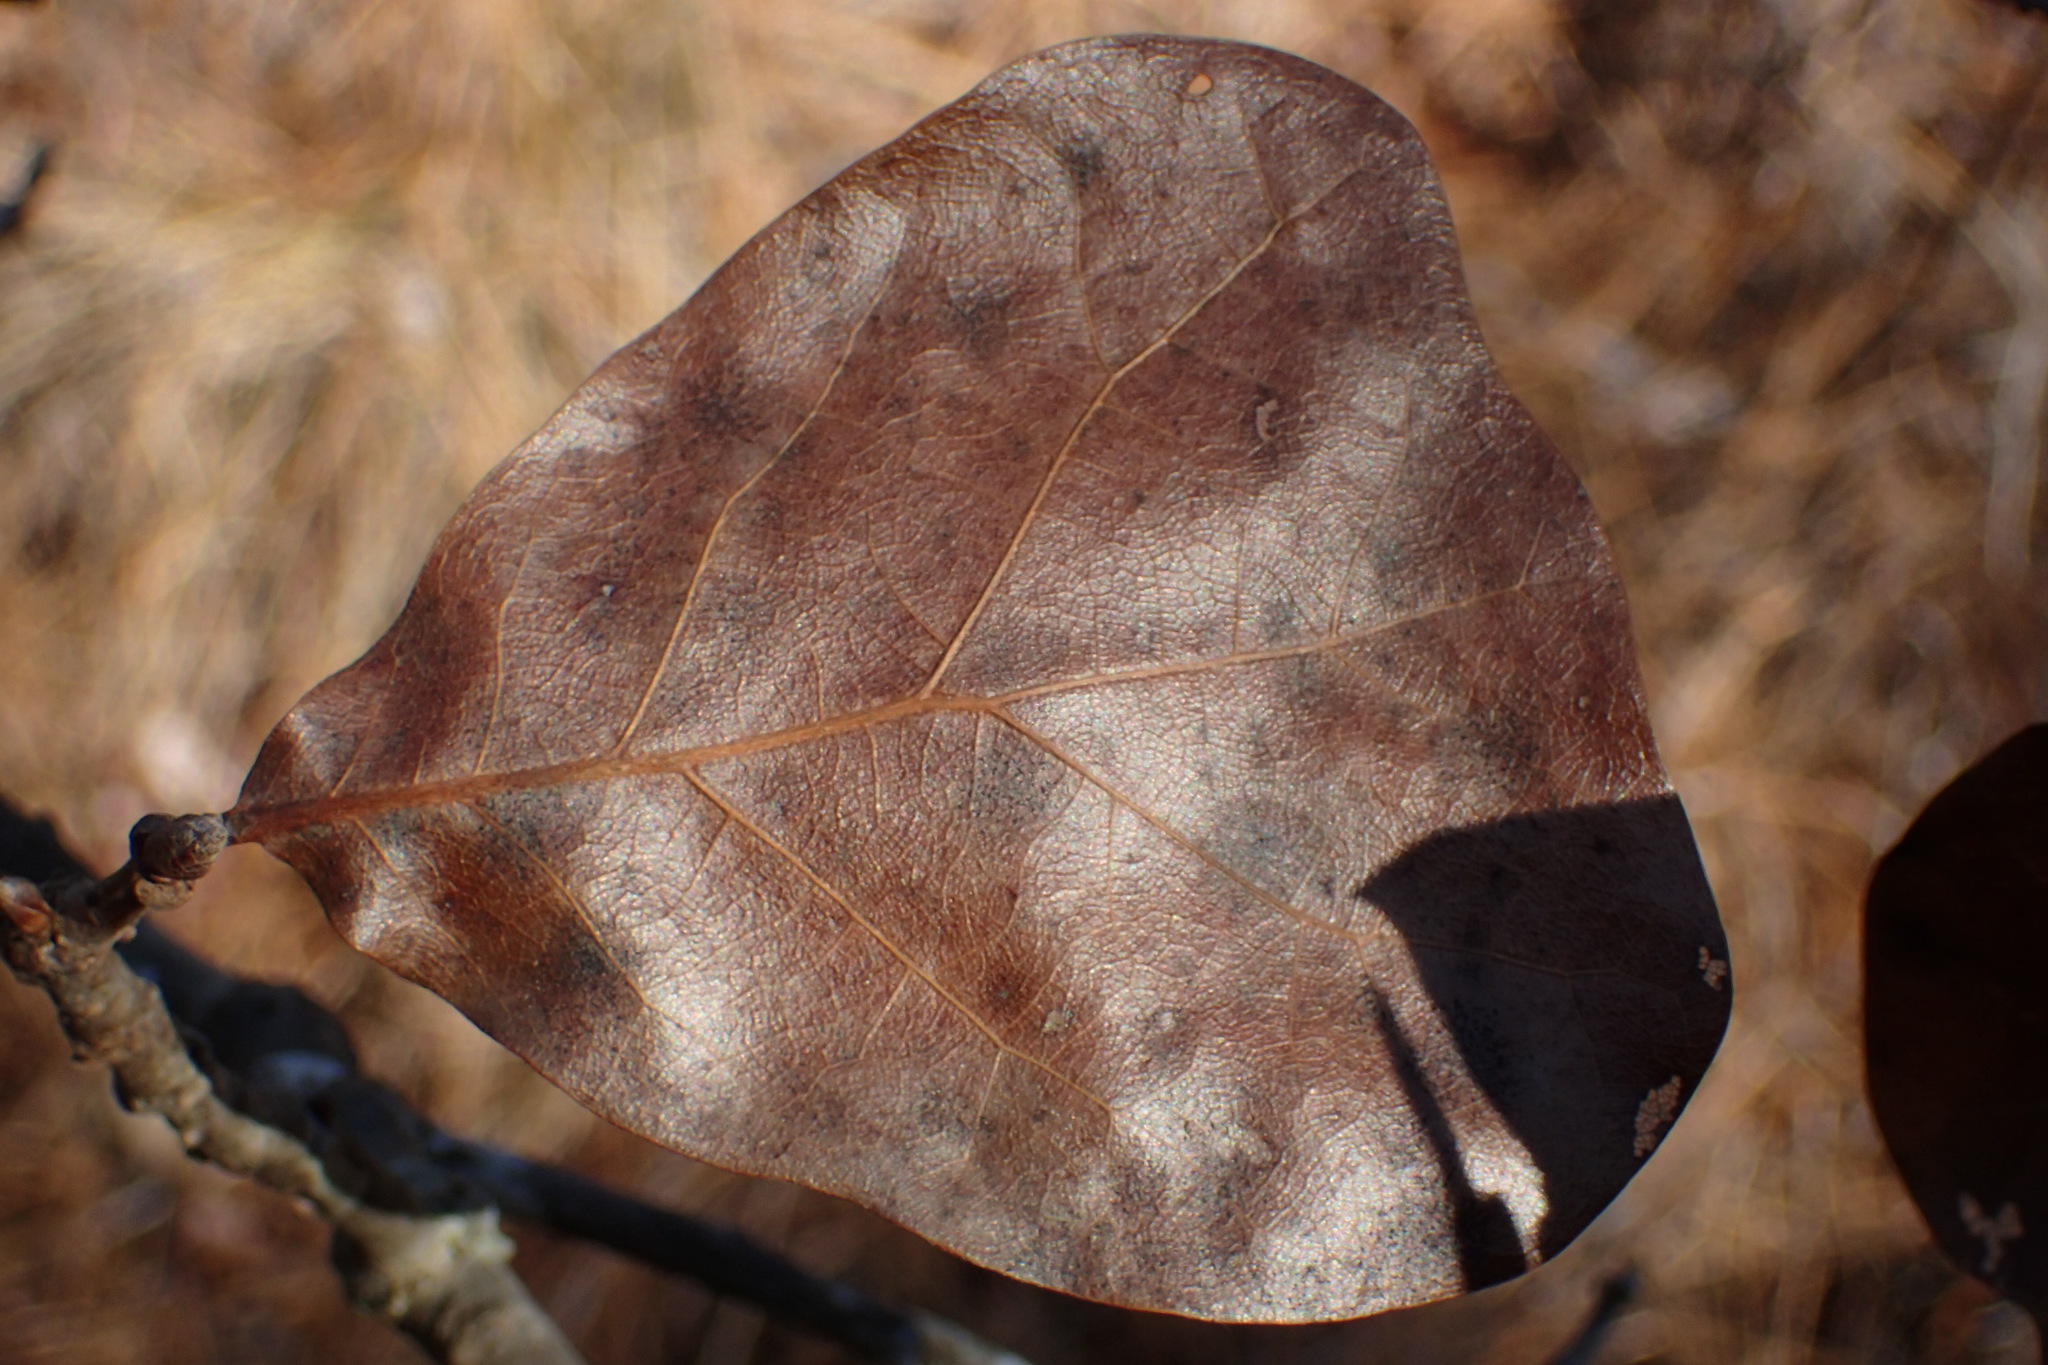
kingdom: Plantae
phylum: Tracheophyta
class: Magnoliopsida
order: Fagales
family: Fagaceae
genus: Quercus
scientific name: Quercus marilandica
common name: Blackjack oak
